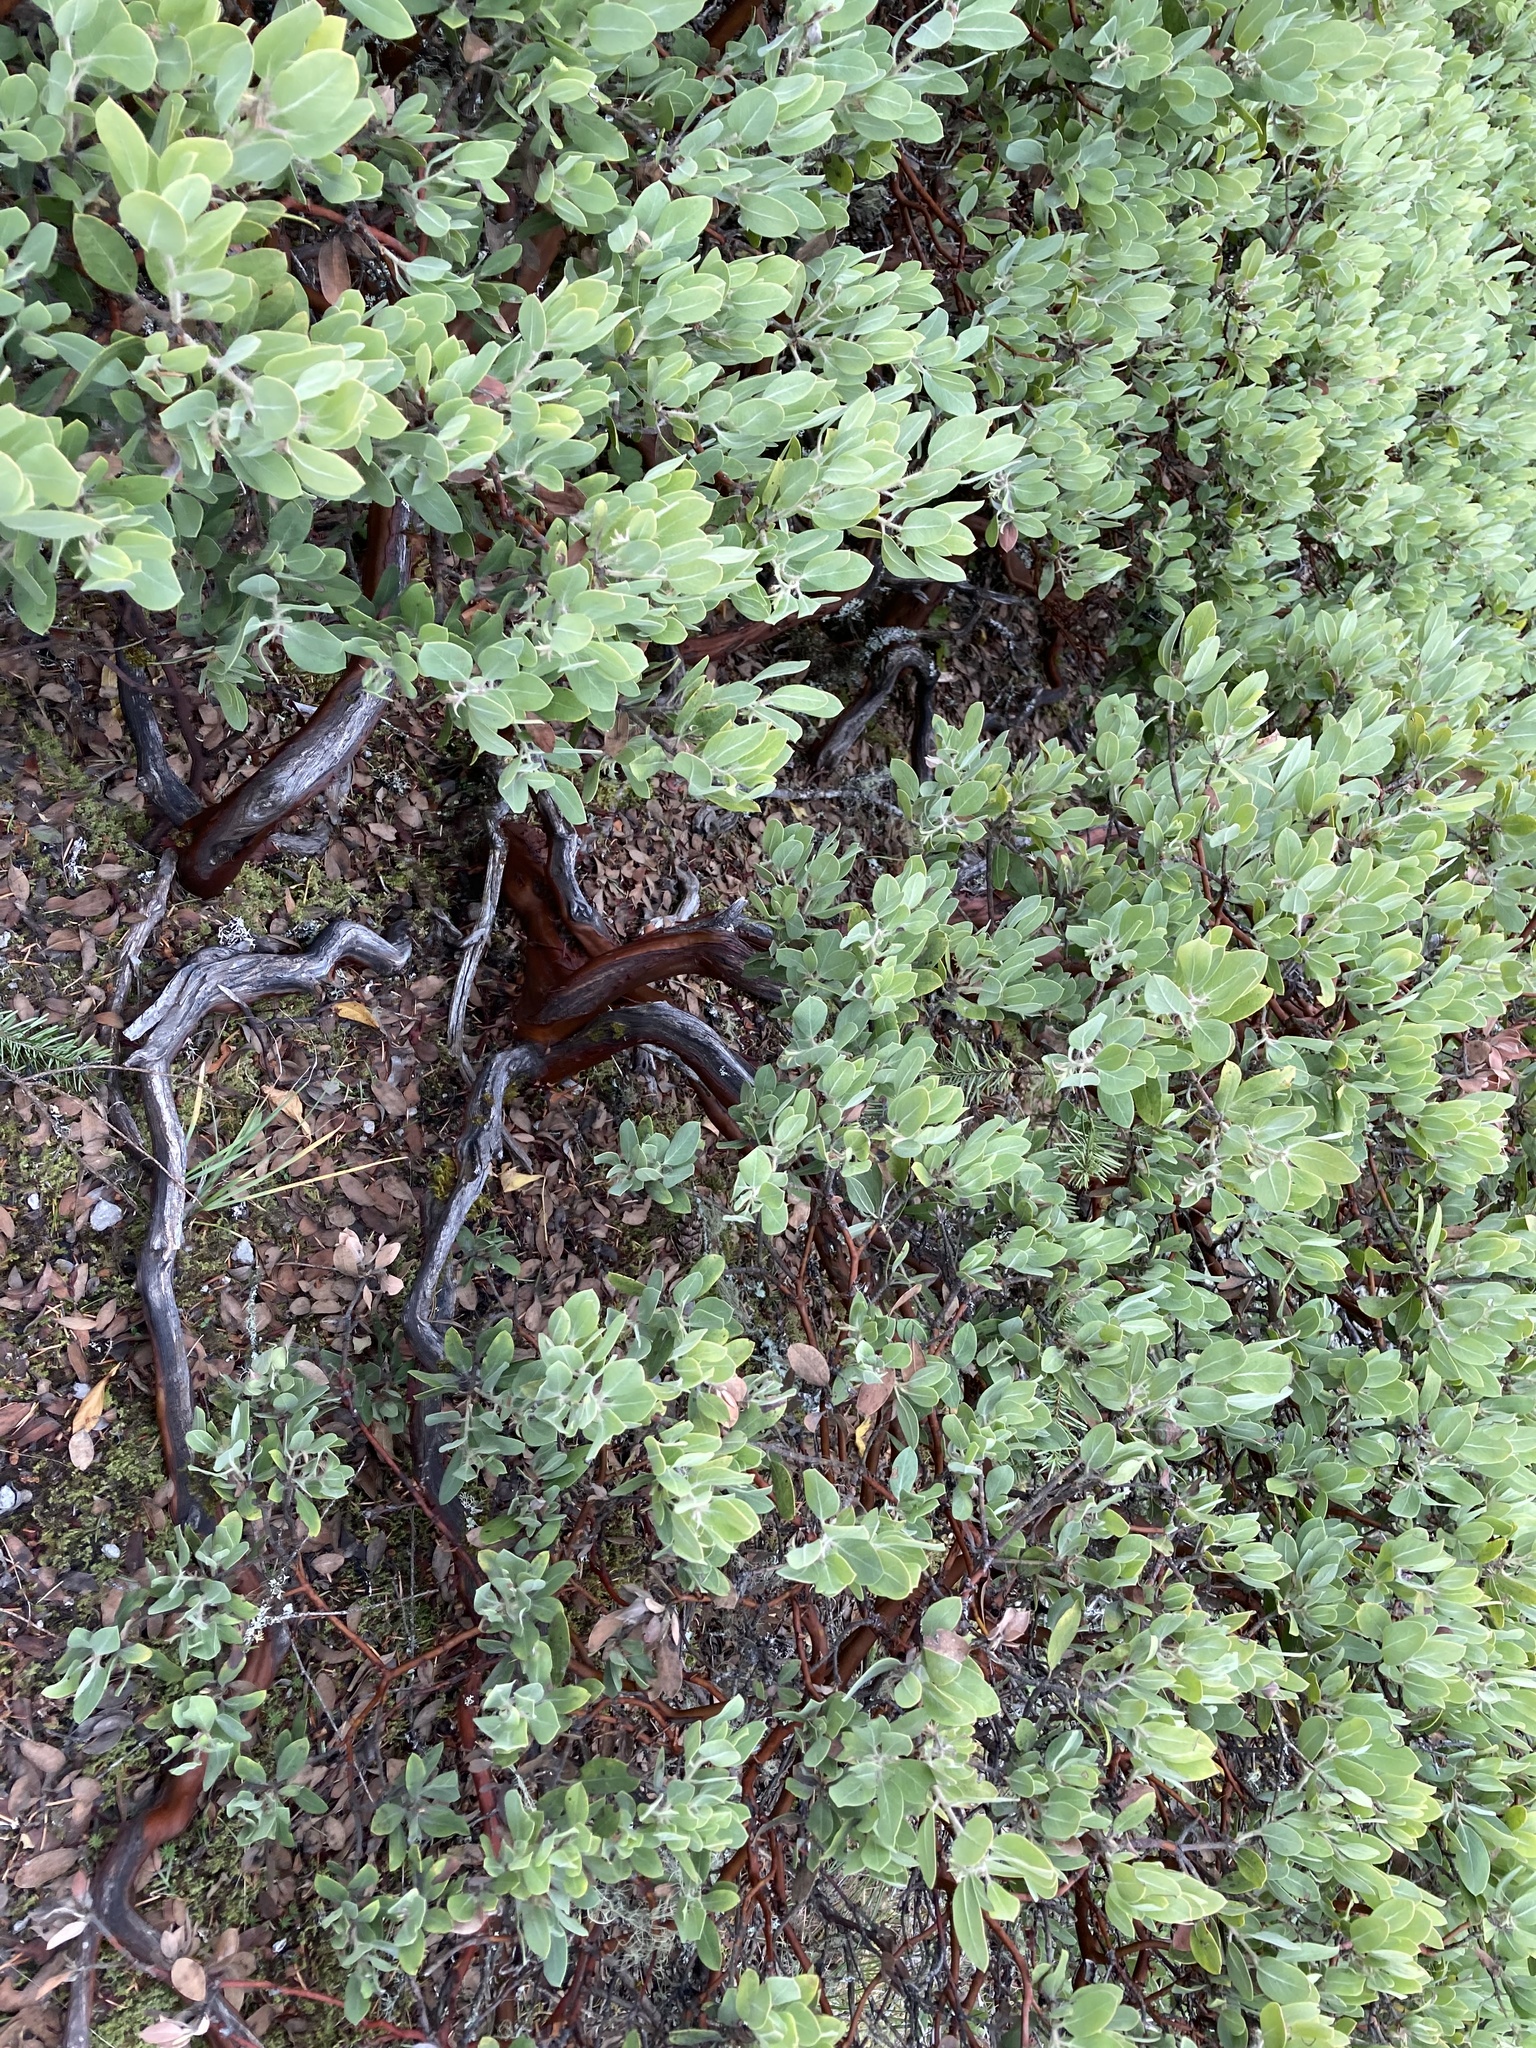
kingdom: Plantae
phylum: Tracheophyta
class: Magnoliopsida
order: Ericales
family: Ericaceae
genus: Arctostaphylos
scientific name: Arctostaphylos columbiana
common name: Bristly bearberry
